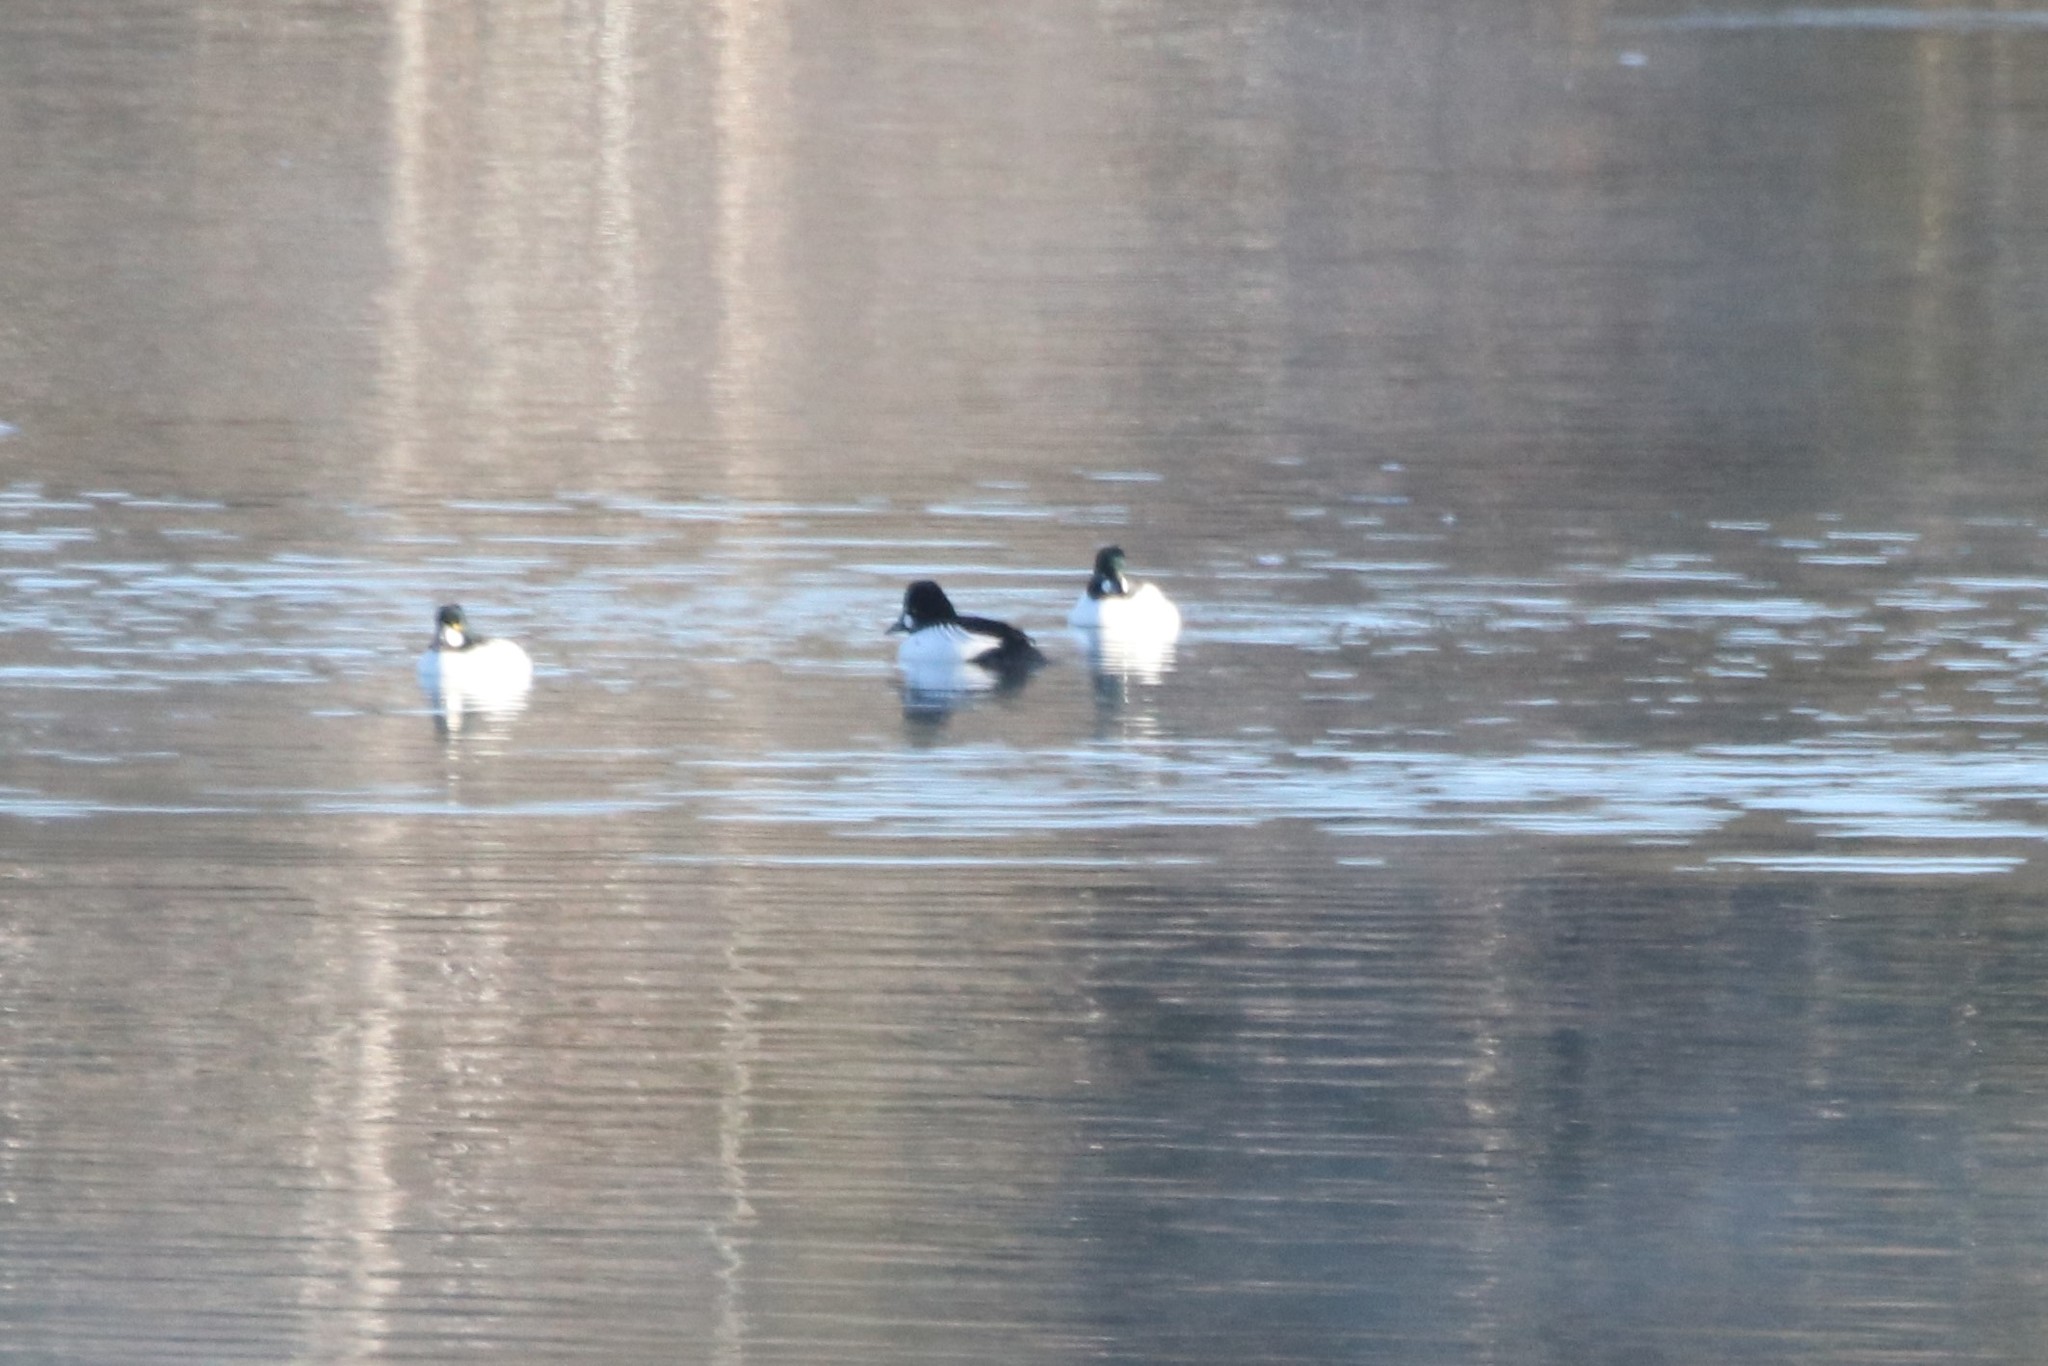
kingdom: Animalia
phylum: Chordata
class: Aves
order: Anseriformes
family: Anatidae
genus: Bucephala
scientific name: Bucephala clangula
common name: Common goldeneye
